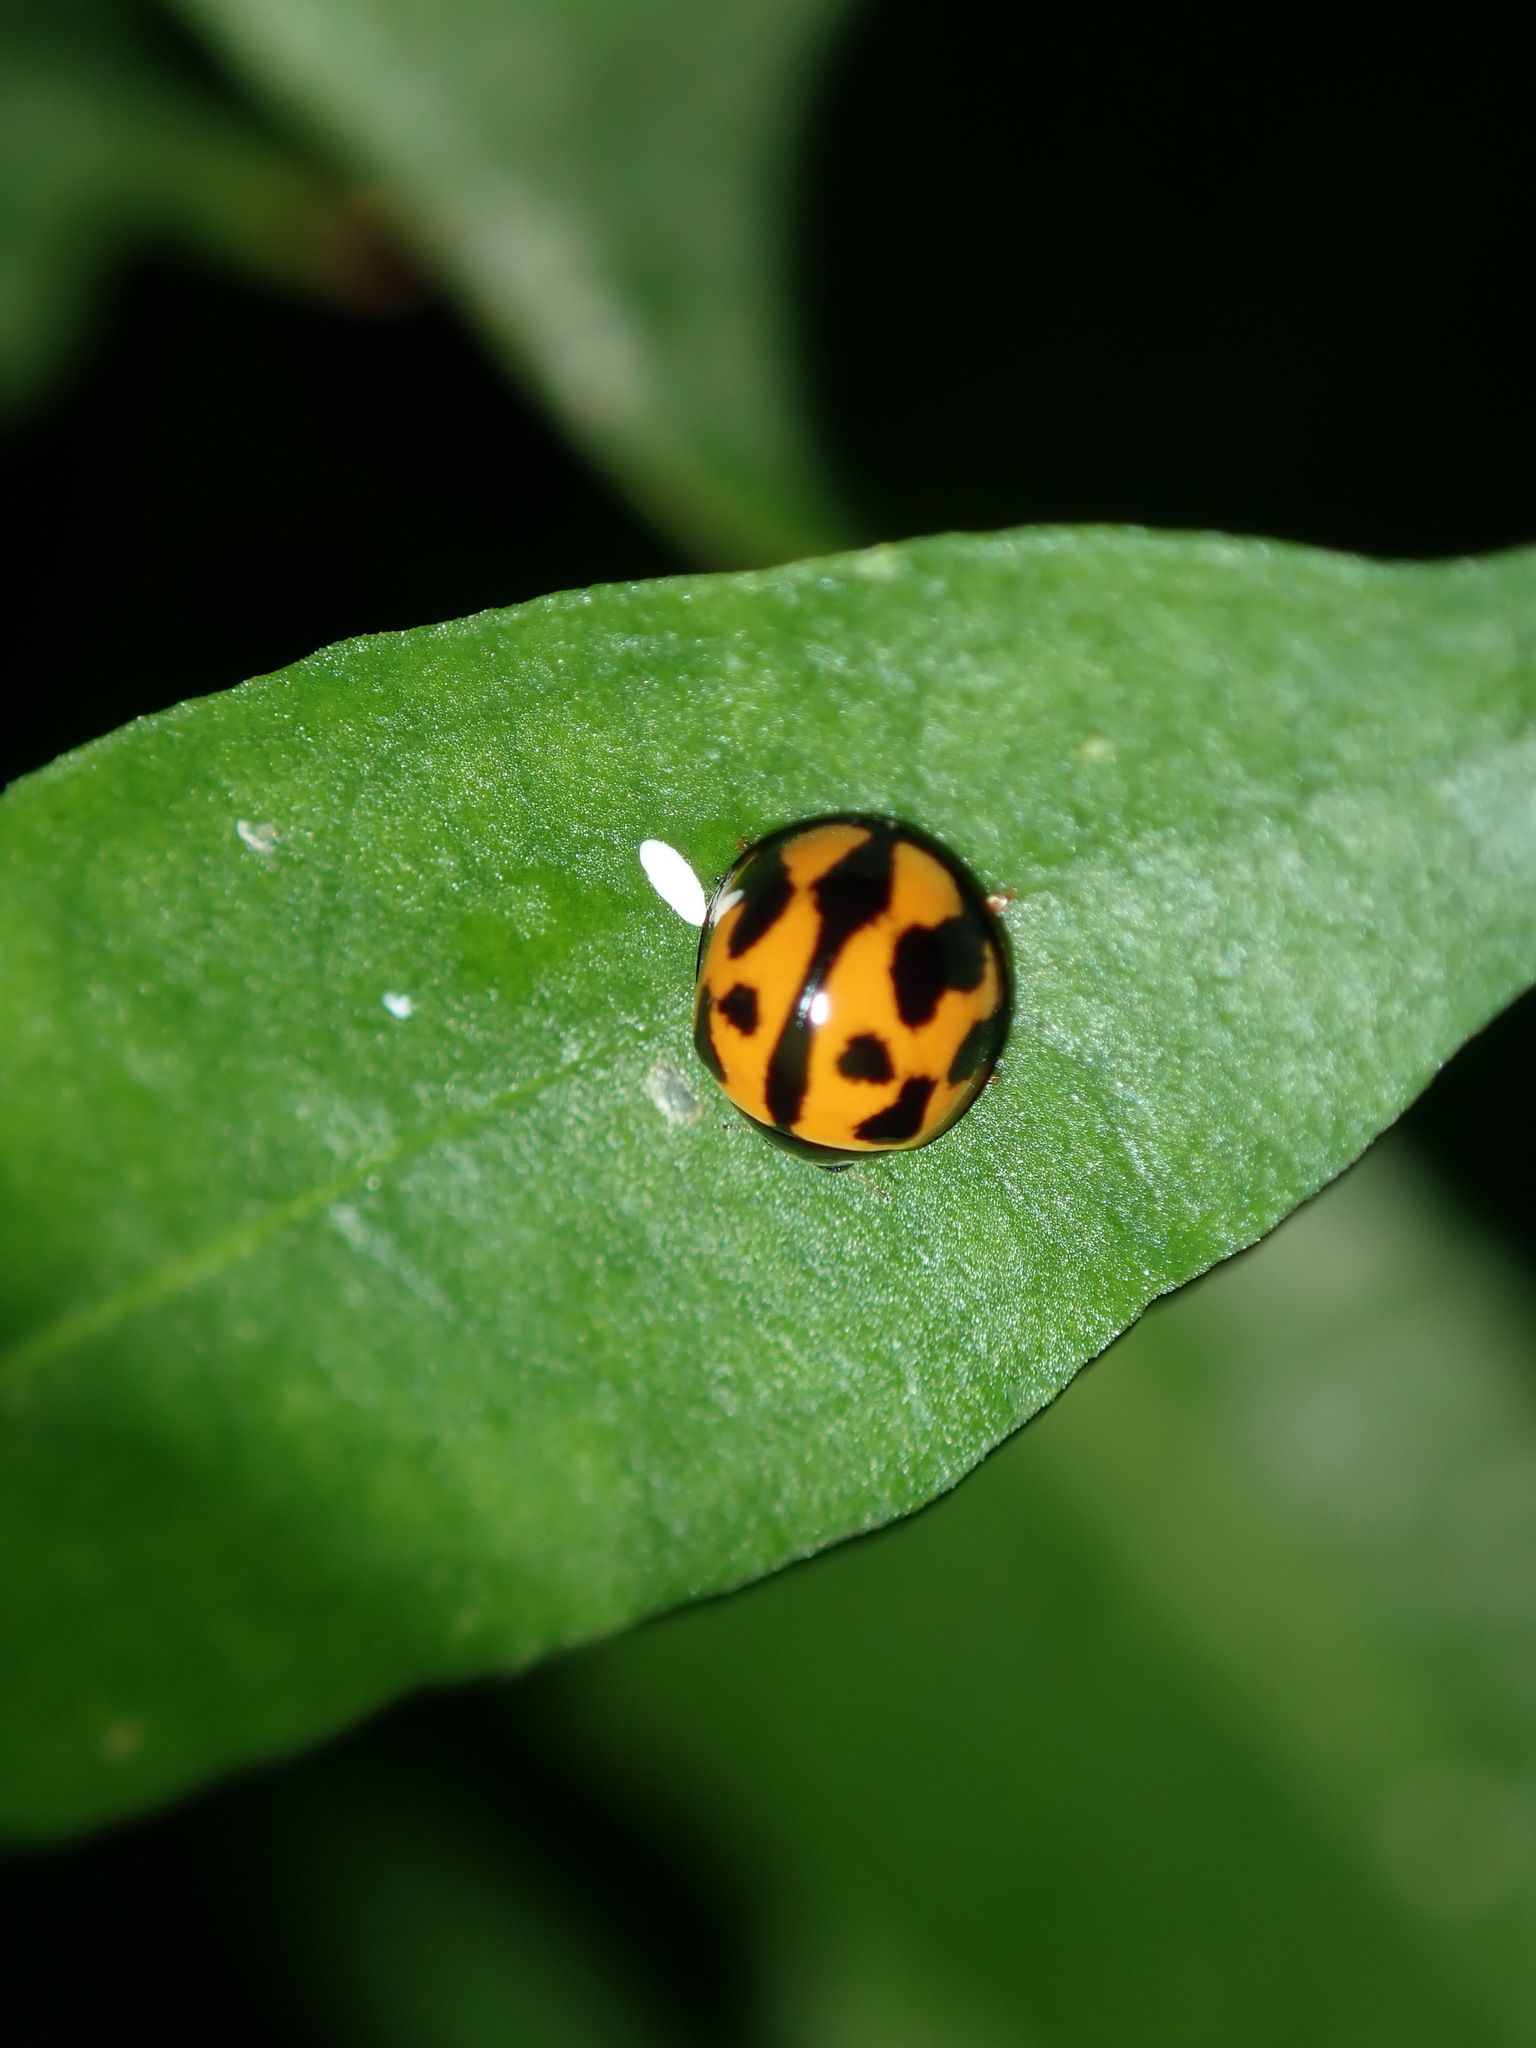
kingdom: Animalia
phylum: Arthropoda
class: Insecta
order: Coleoptera
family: Coccinellidae
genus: Coelophora
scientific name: Coelophora inaequalis
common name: Common australian lady beetle
